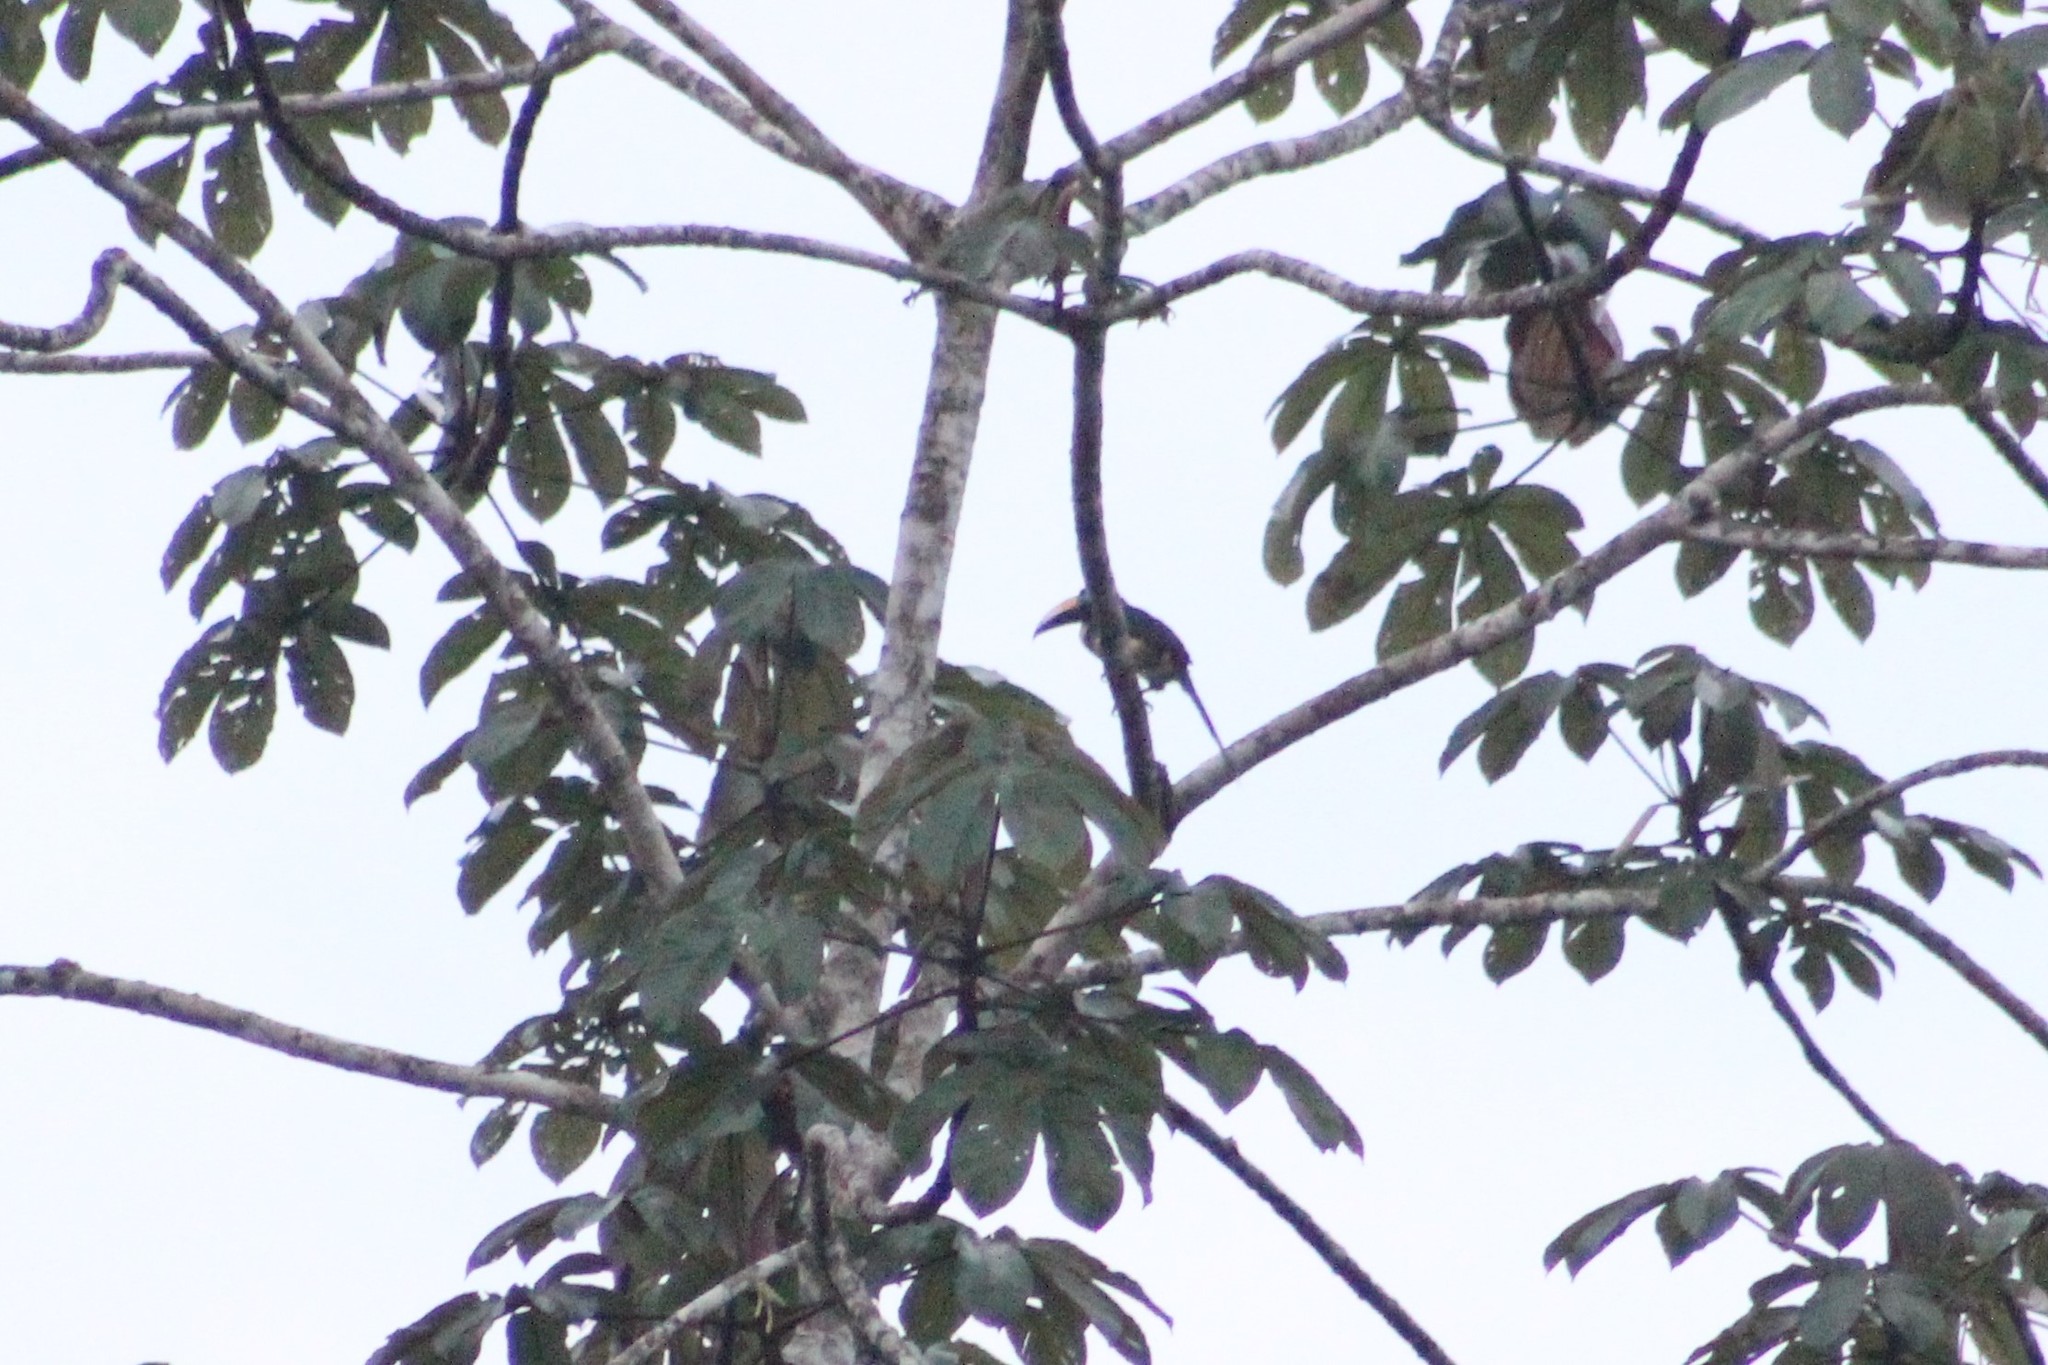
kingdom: Animalia
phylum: Chordata
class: Aves
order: Piciformes
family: Ramphastidae
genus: Pteroglossus
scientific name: Pteroglossus pluricinctus
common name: Many-banded aracari
